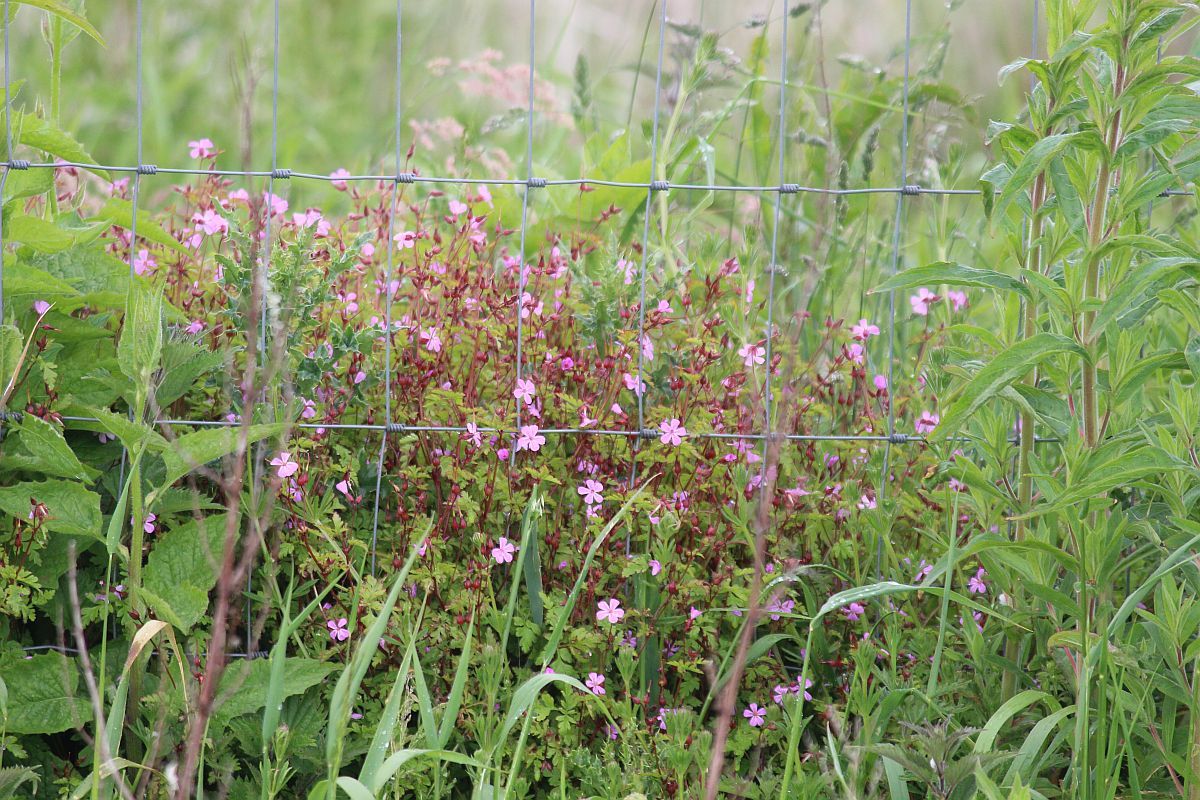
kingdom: Plantae
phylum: Tracheophyta
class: Magnoliopsida
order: Geraniales
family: Geraniaceae
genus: Geranium
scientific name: Geranium robertianum
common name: Herb-robert
